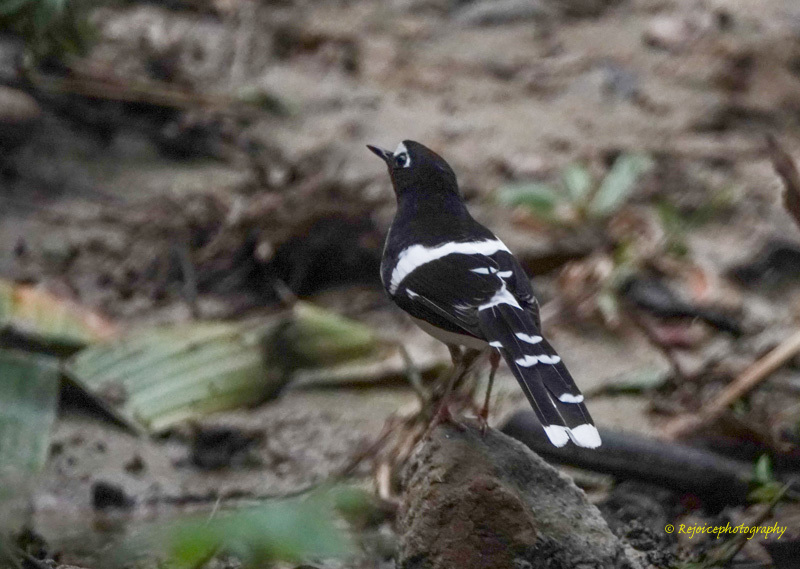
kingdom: Animalia
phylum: Chordata
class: Aves
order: Passeriformes
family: Muscicapidae
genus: Enicurus
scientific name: Enicurus immaculatus
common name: Black-backed forktail
